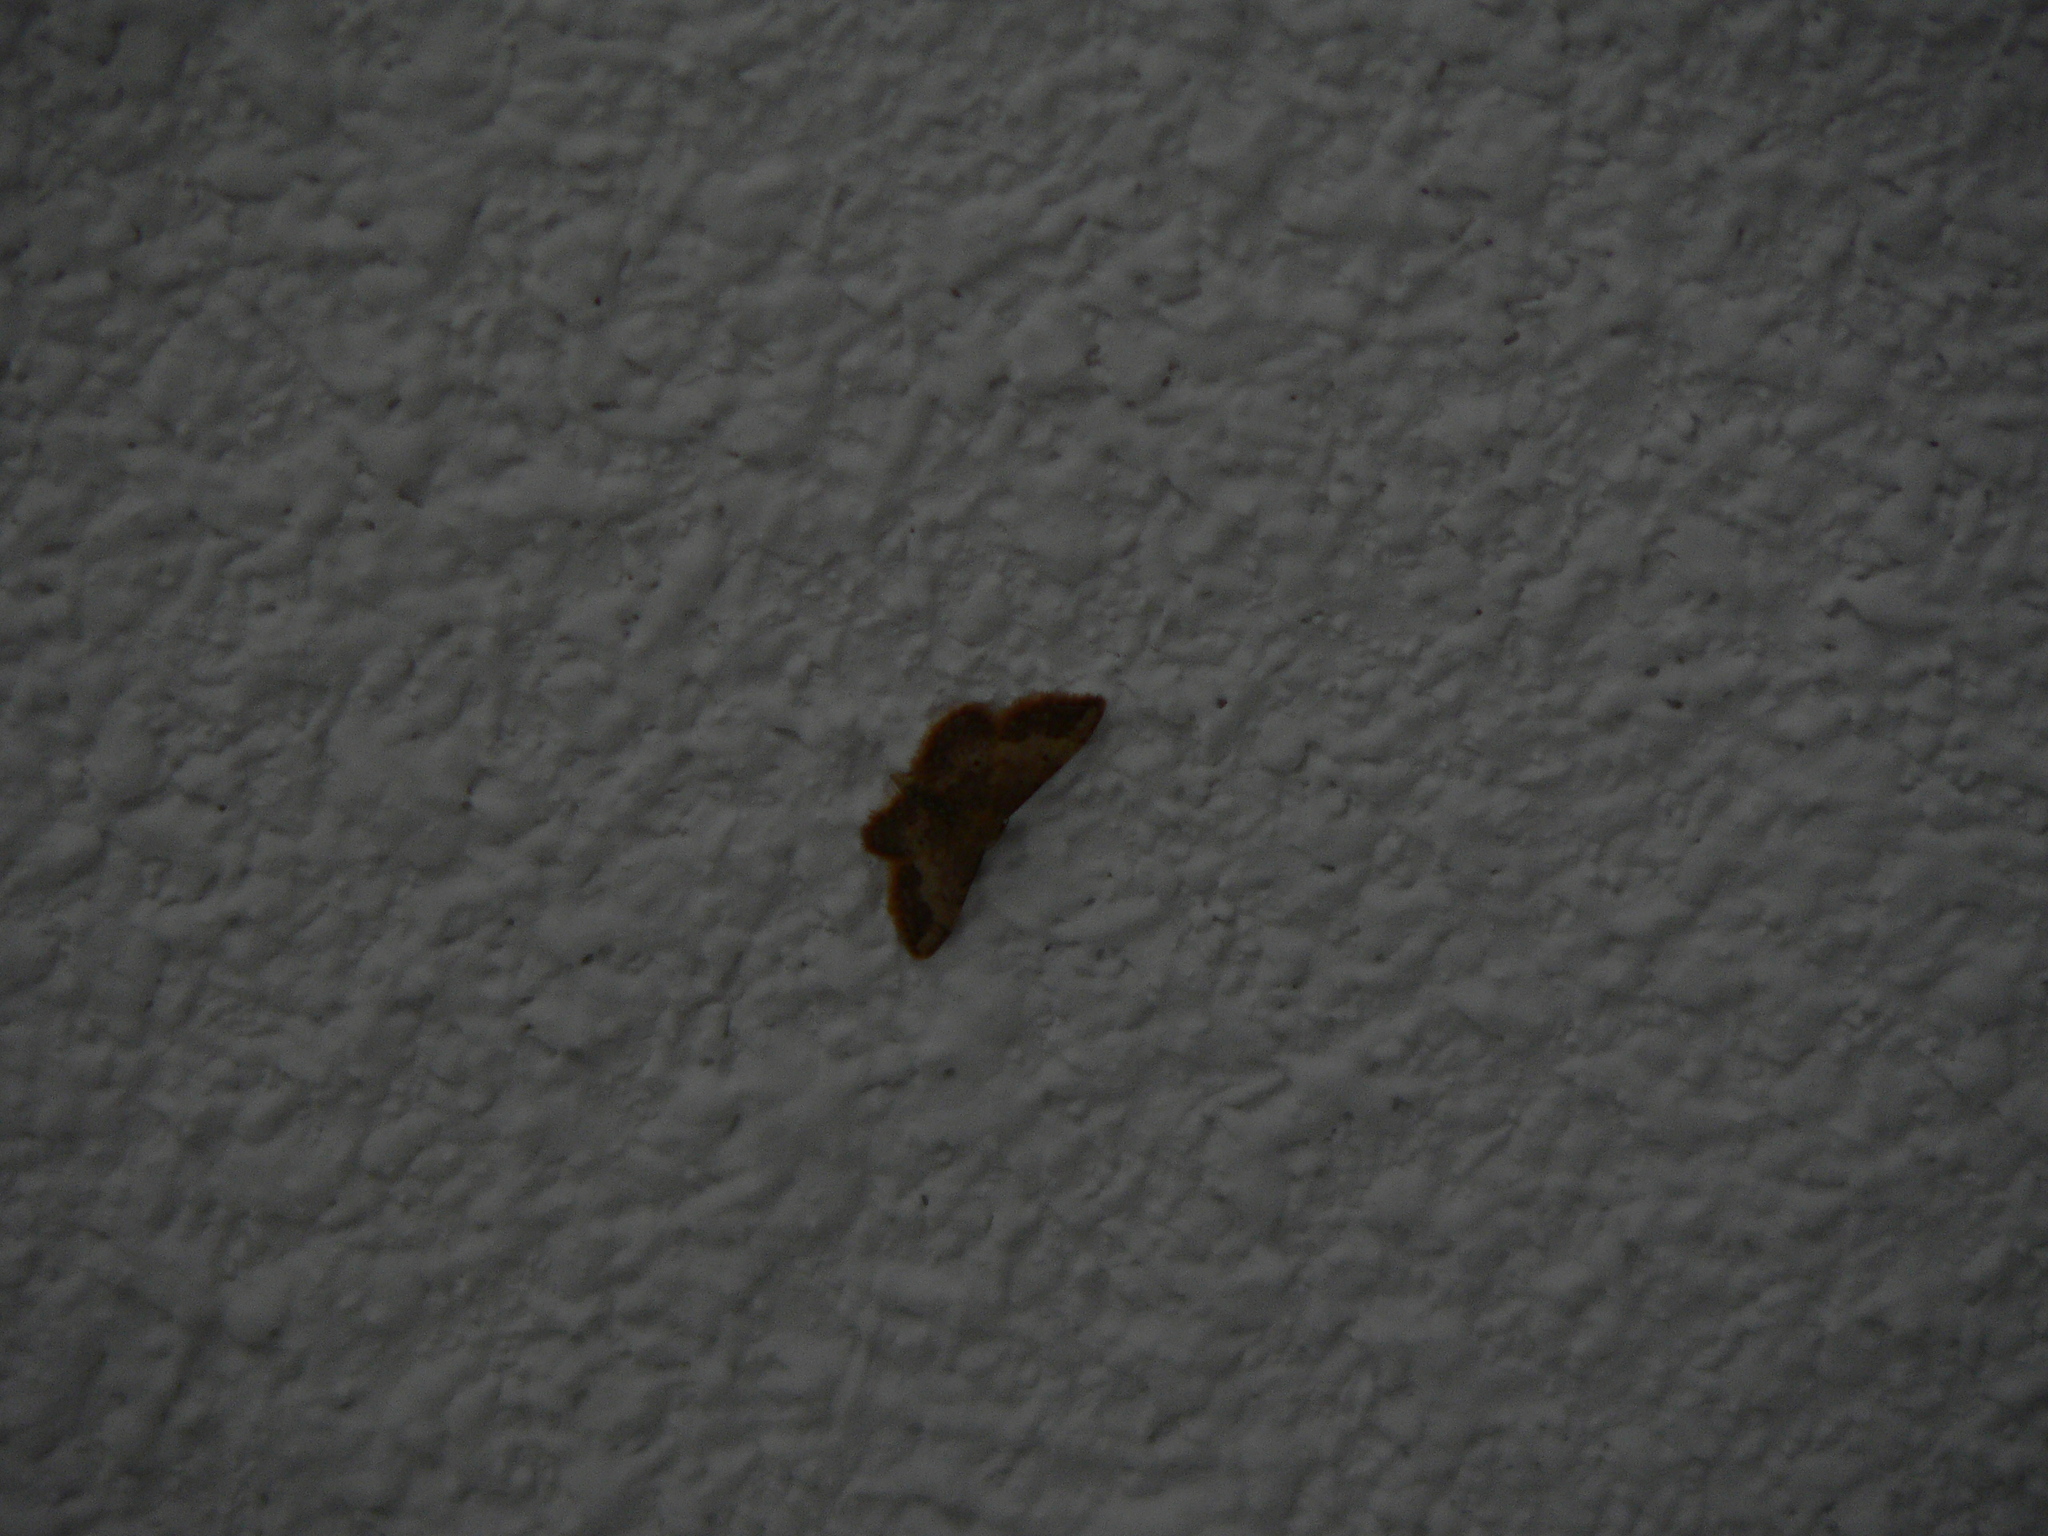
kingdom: Animalia
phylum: Arthropoda
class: Insecta
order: Lepidoptera
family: Geometridae
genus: Idaea
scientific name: Idaea ostrinaria
